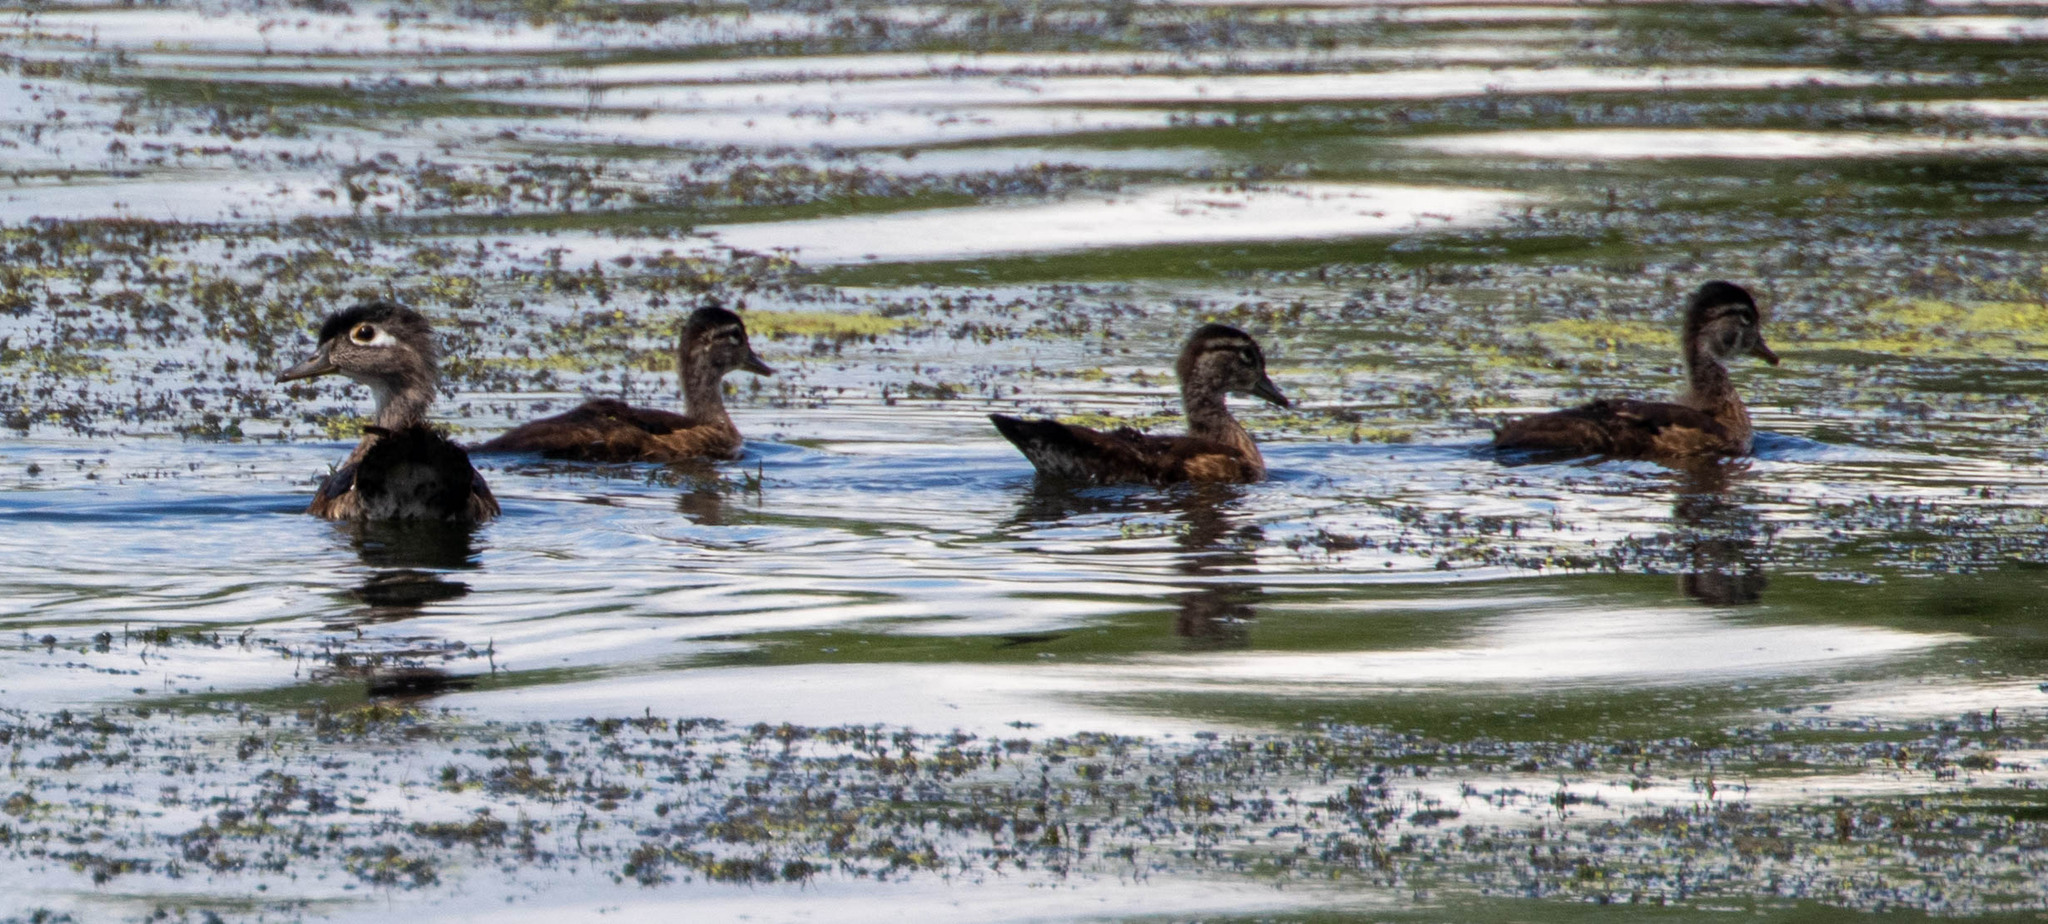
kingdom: Animalia
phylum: Chordata
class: Aves
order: Anseriformes
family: Anatidae
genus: Aix
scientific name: Aix sponsa
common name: Wood duck
